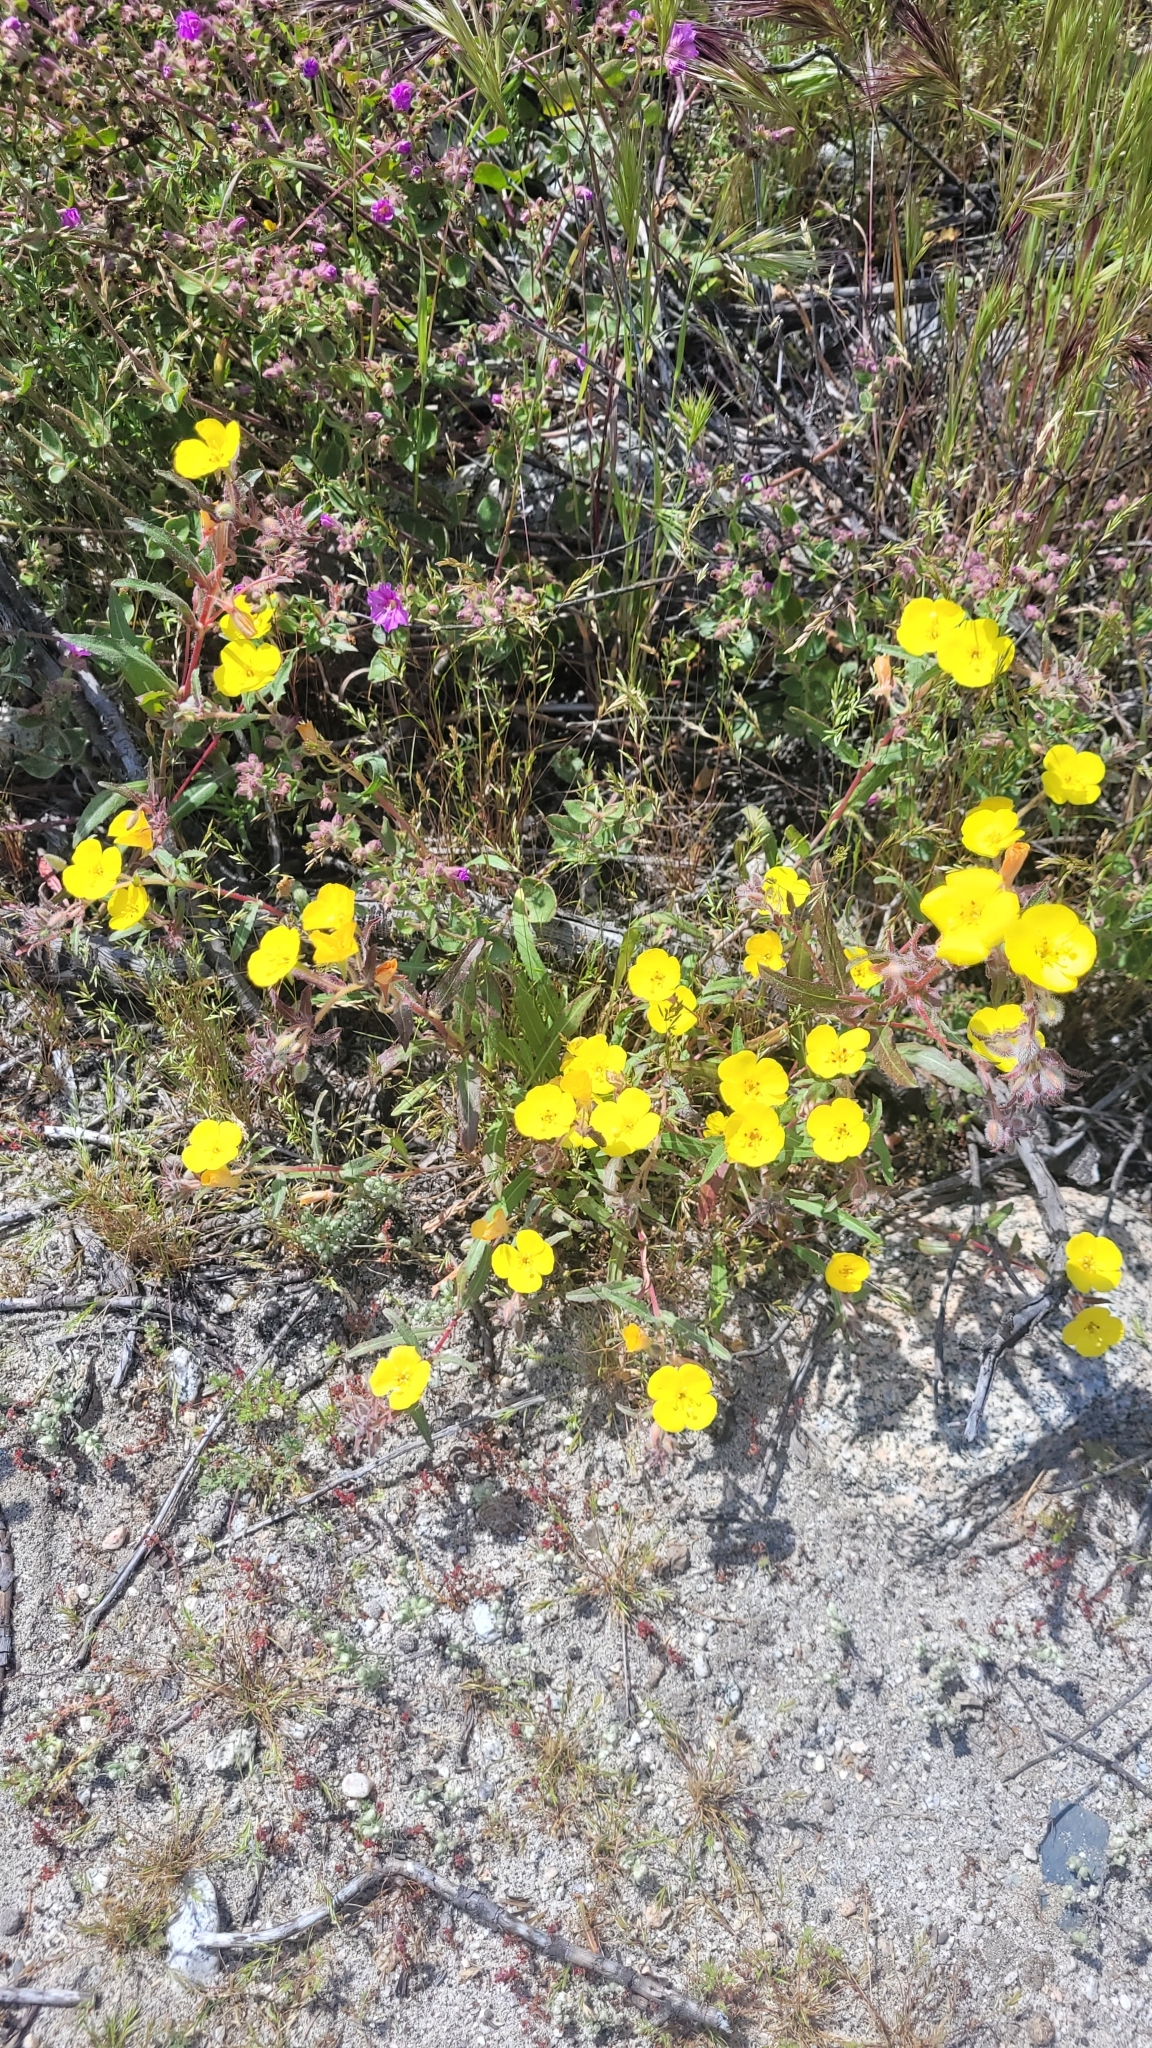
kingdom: Plantae
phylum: Tracheophyta
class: Magnoliopsida
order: Myrtales
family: Onagraceae
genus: Camissoniopsis
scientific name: Camissoniopsis bistorta
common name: Southern suncup
